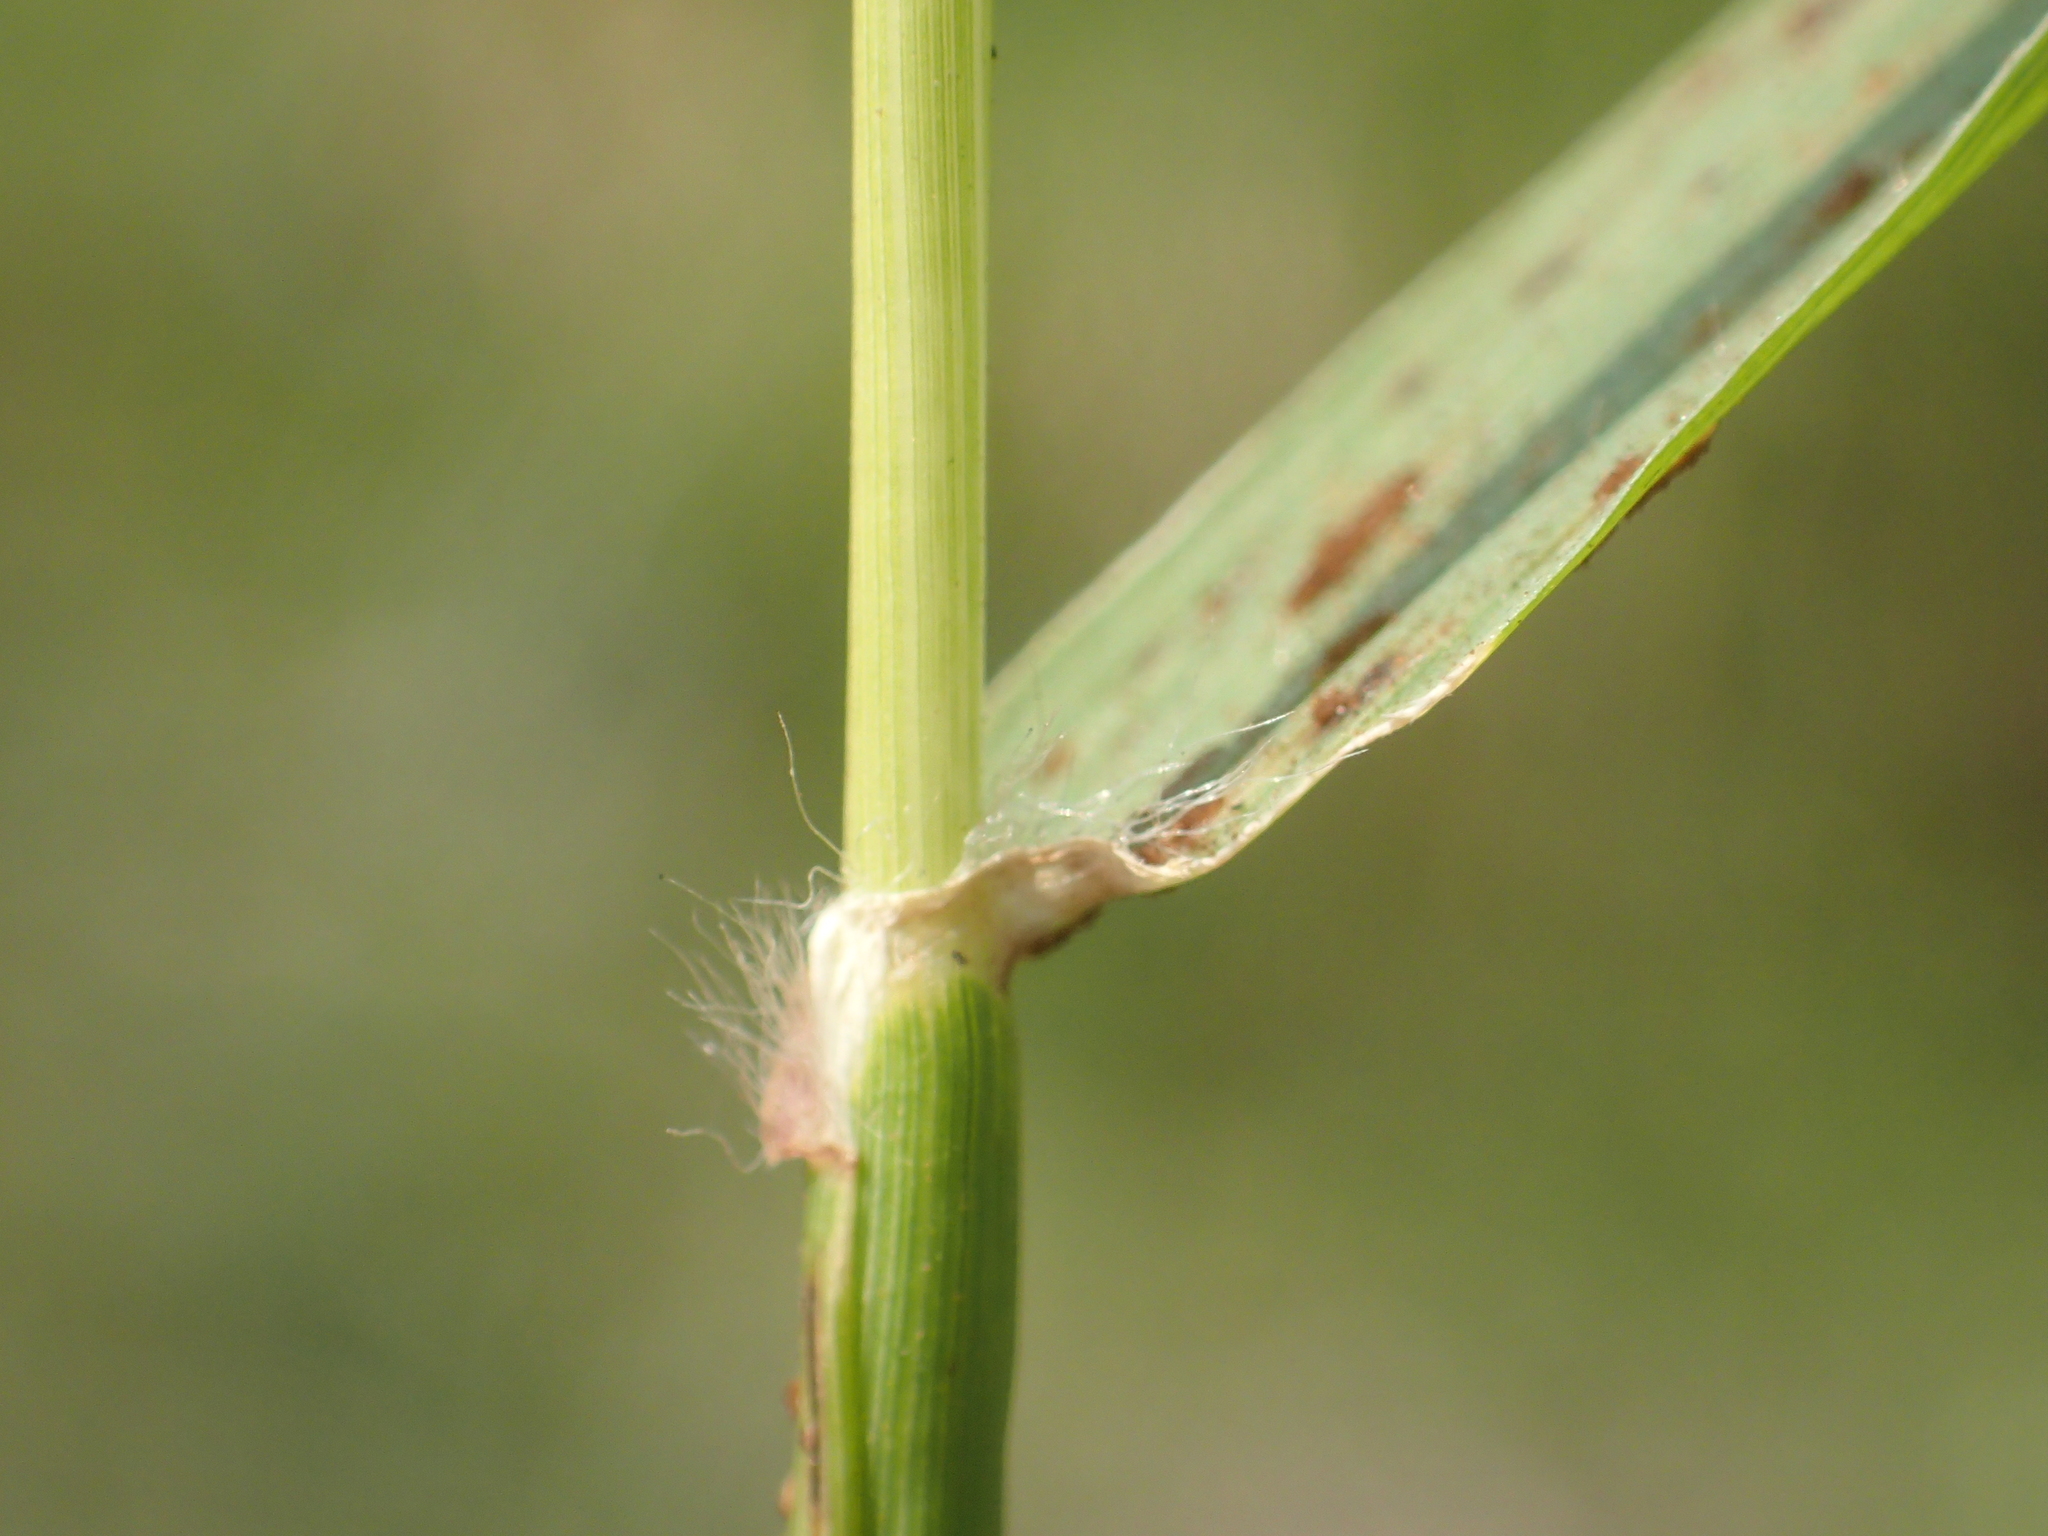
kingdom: Plantae
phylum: Tracheophyta
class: Liliopsida
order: Poales
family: Poaceae
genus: Cynodon
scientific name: Cynodon nlemfuensis
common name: African bermudagrass
